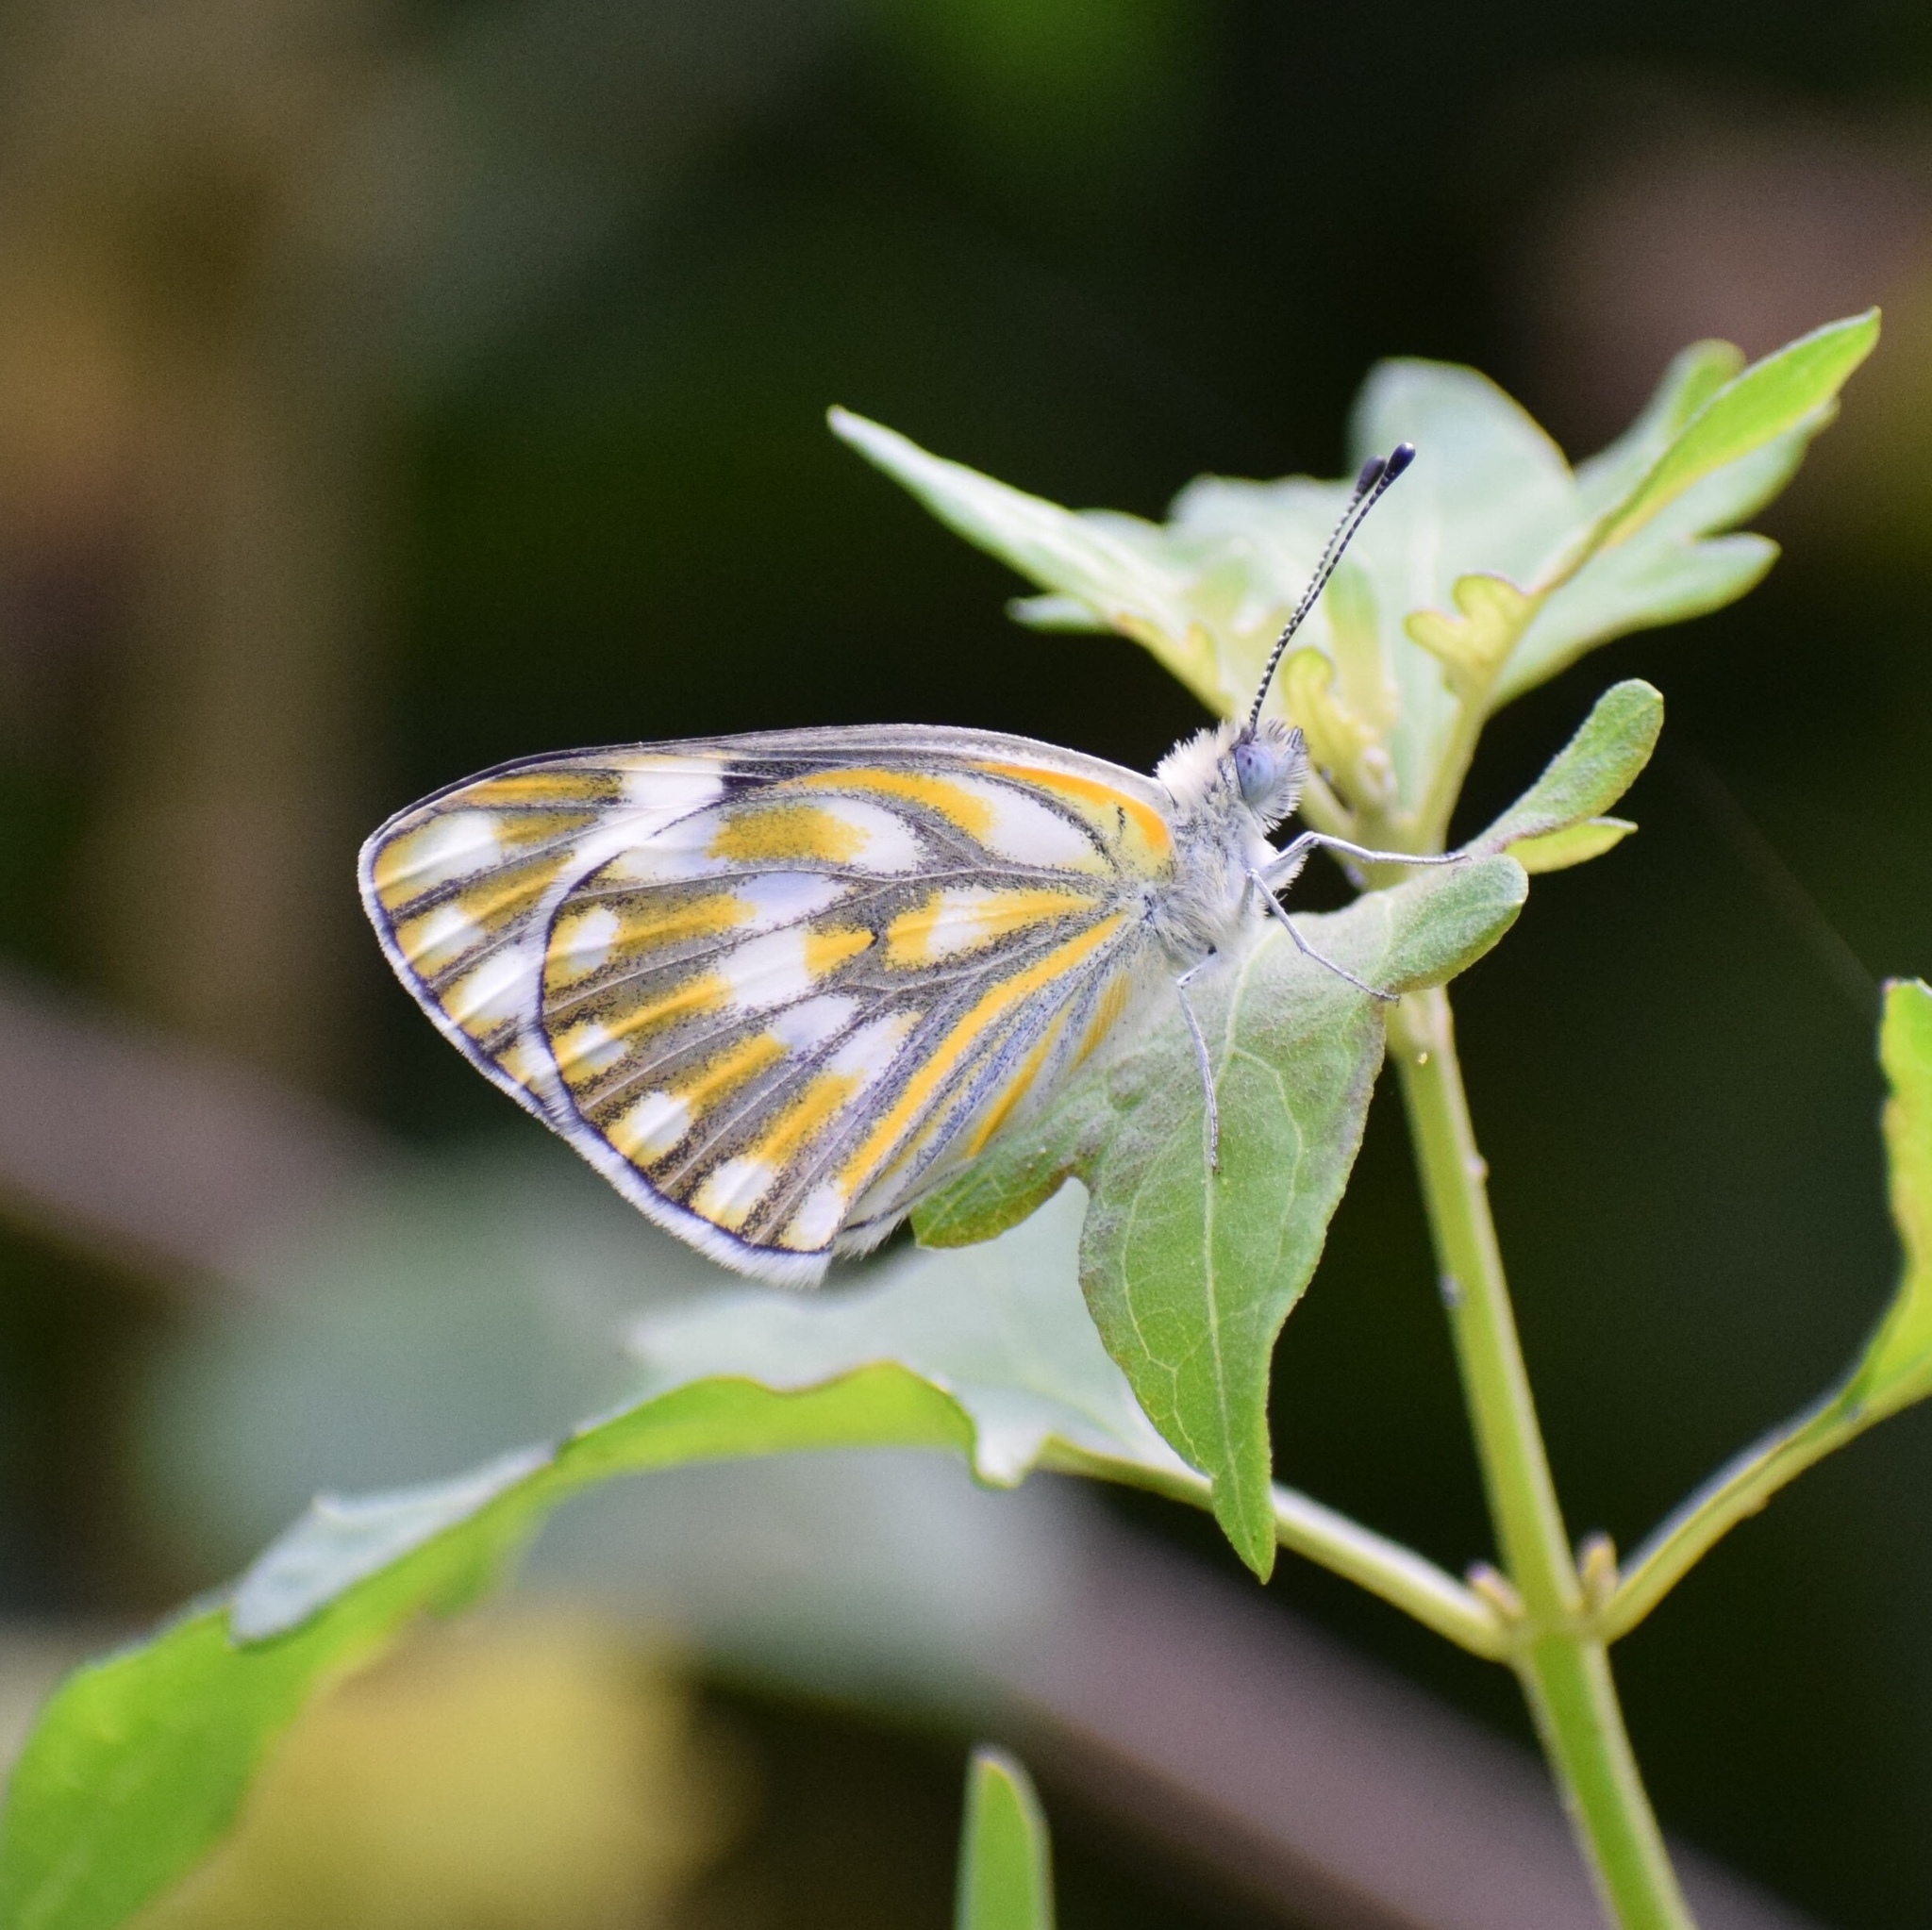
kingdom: Animalia
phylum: Arthropoda
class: Insecta
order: Lepidoptera
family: Pieridae
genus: Pontia
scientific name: Pontia helice
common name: Meadow white
